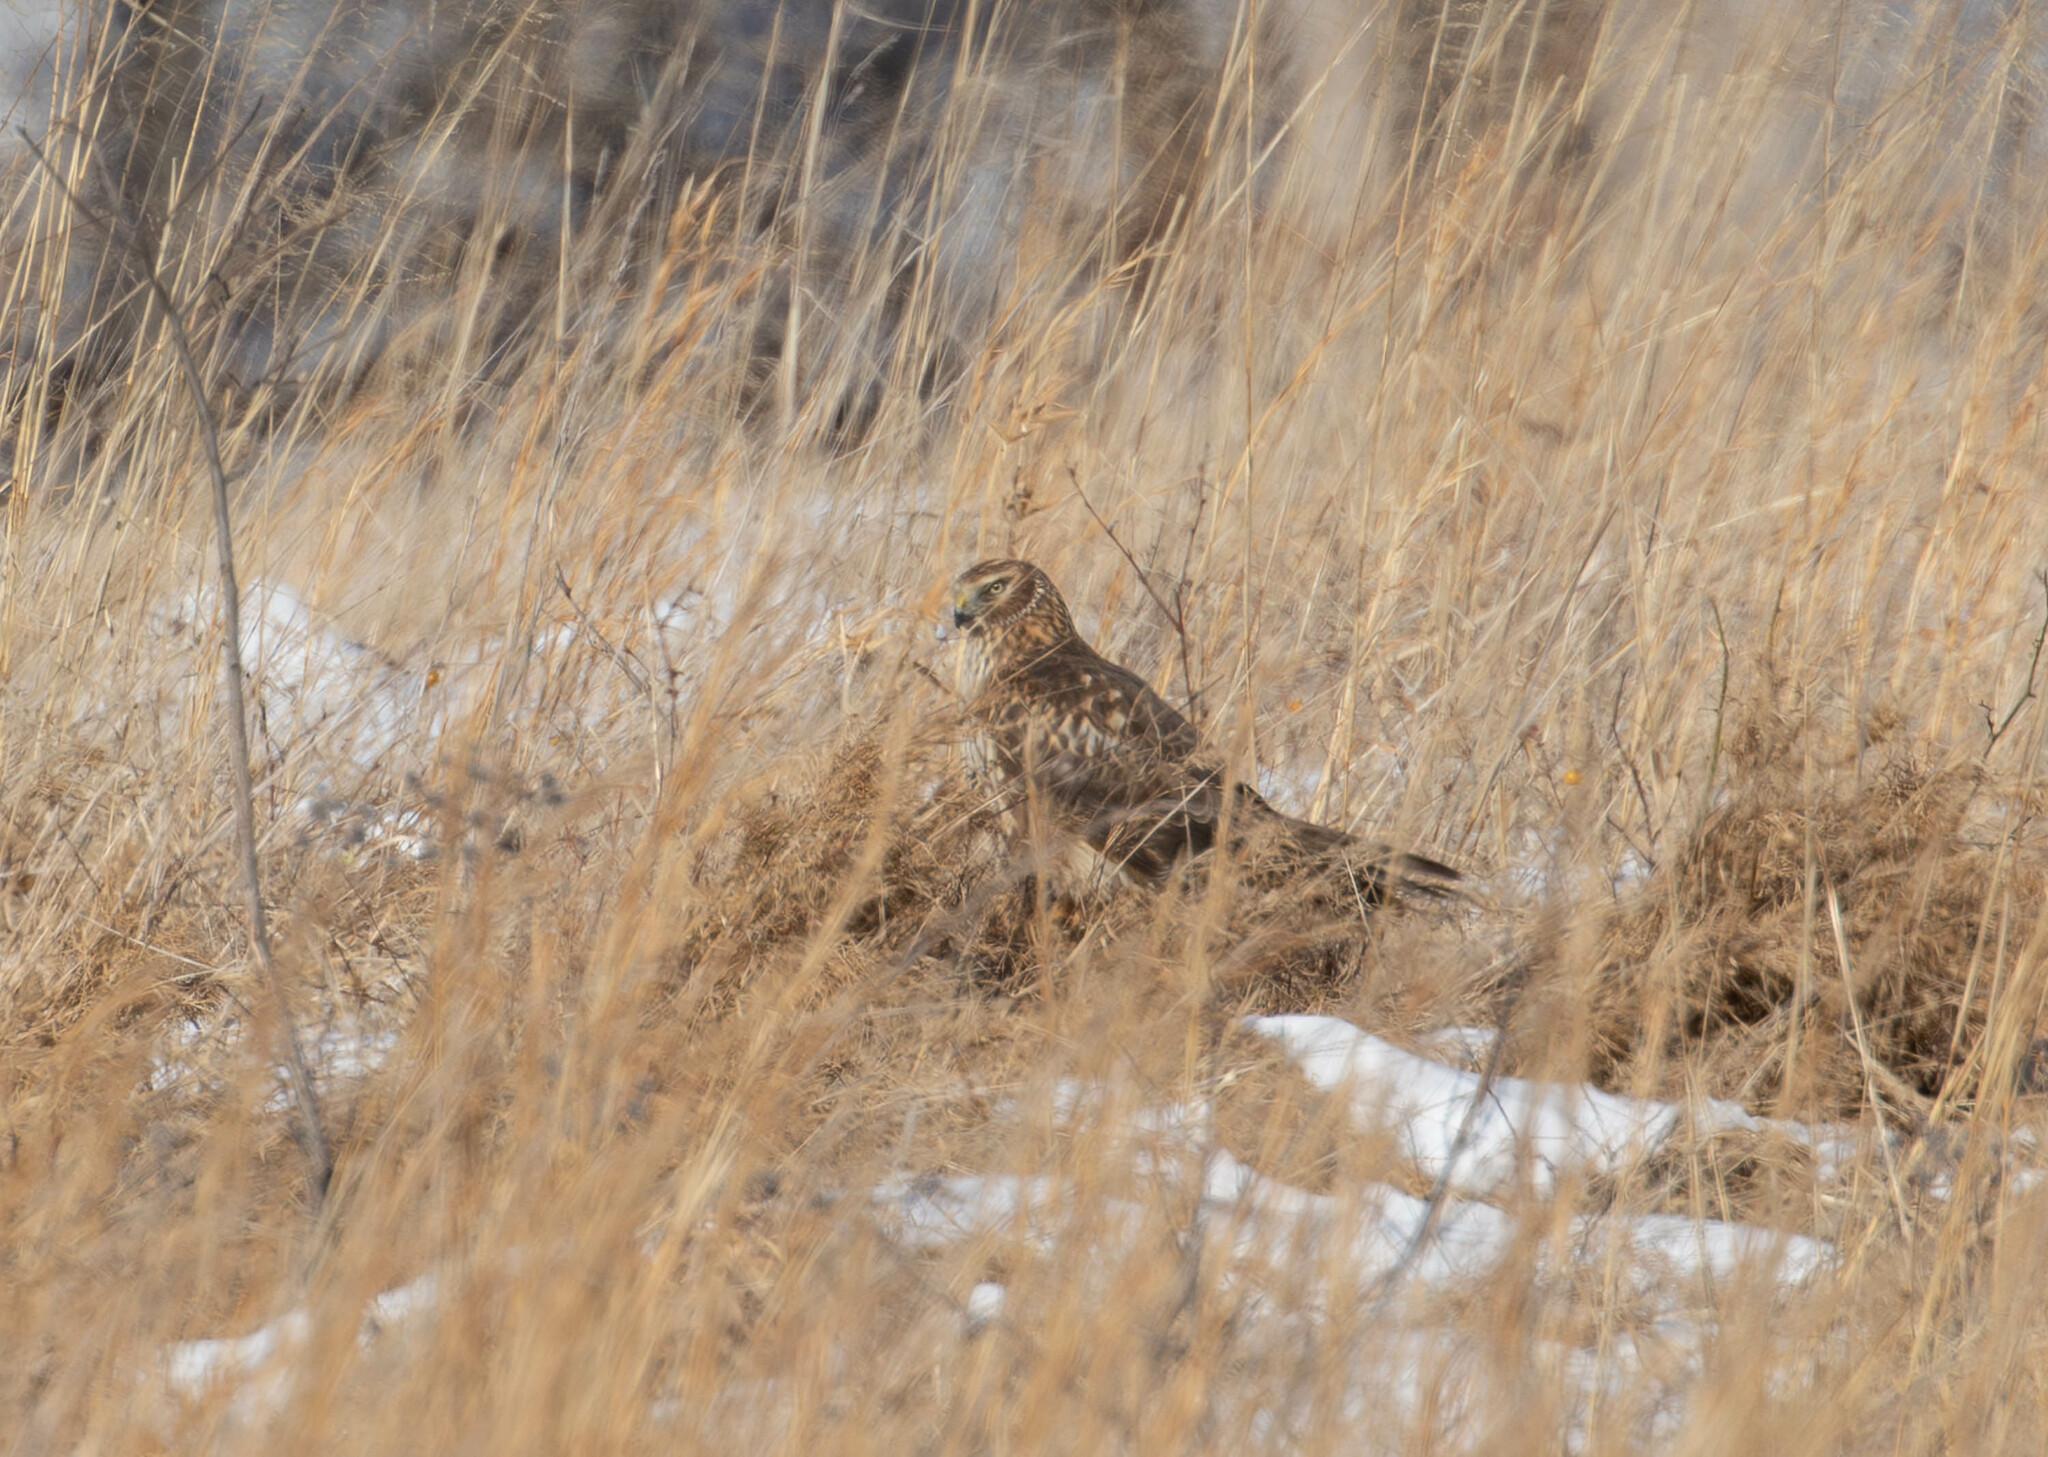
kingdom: Animalia
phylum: Chordata
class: Aves
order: Accipitriformes
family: Accipitridae
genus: Circus
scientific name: Circus cyaneus
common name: Hen harrier
